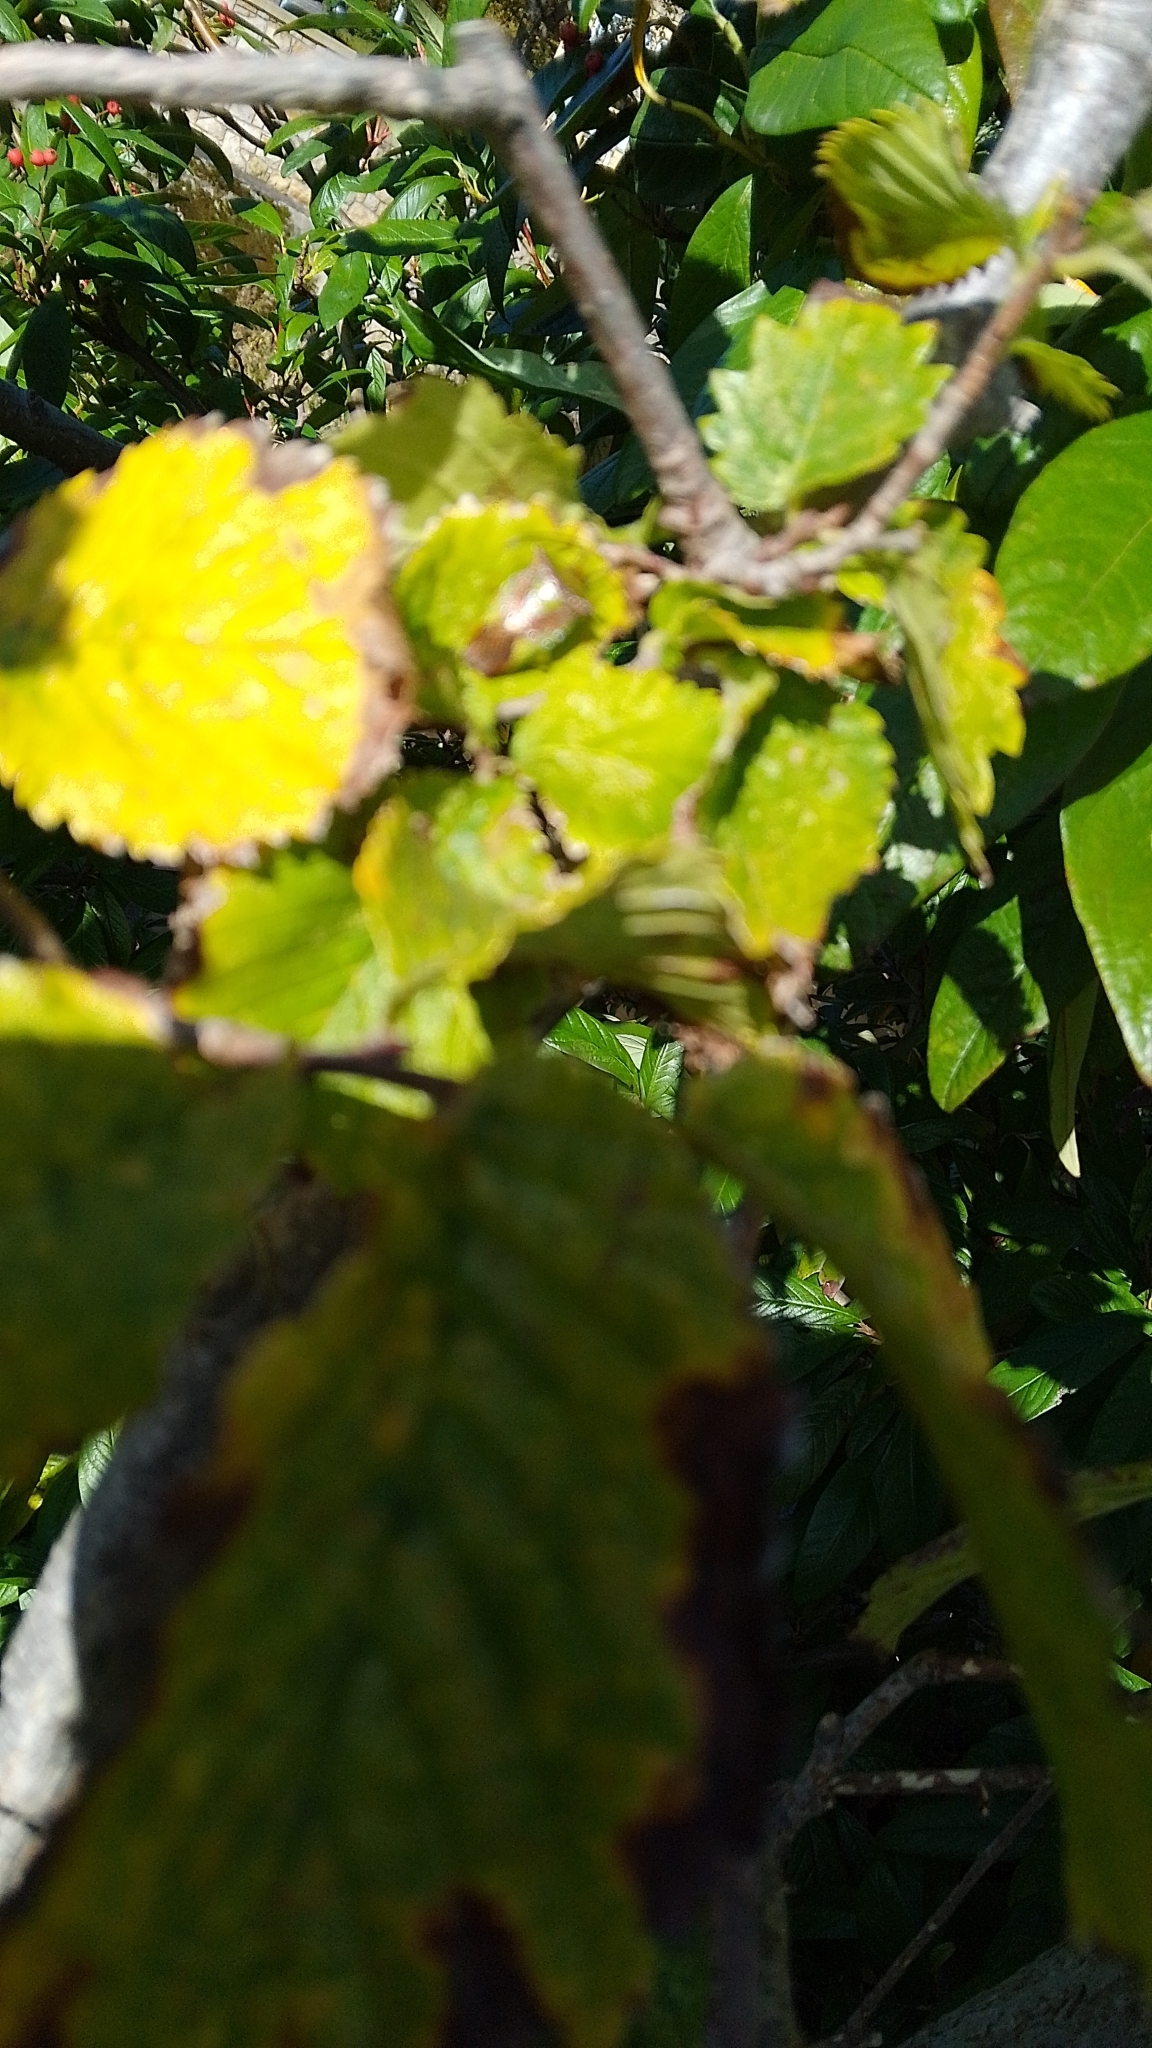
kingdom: Animalia
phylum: Arthropoda
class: Insecta
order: Hemiptera
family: Acanthosomatidae
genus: Acanthosoma
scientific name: Acanthosoma haemorrhoidale
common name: Hawthorn shieldbug
